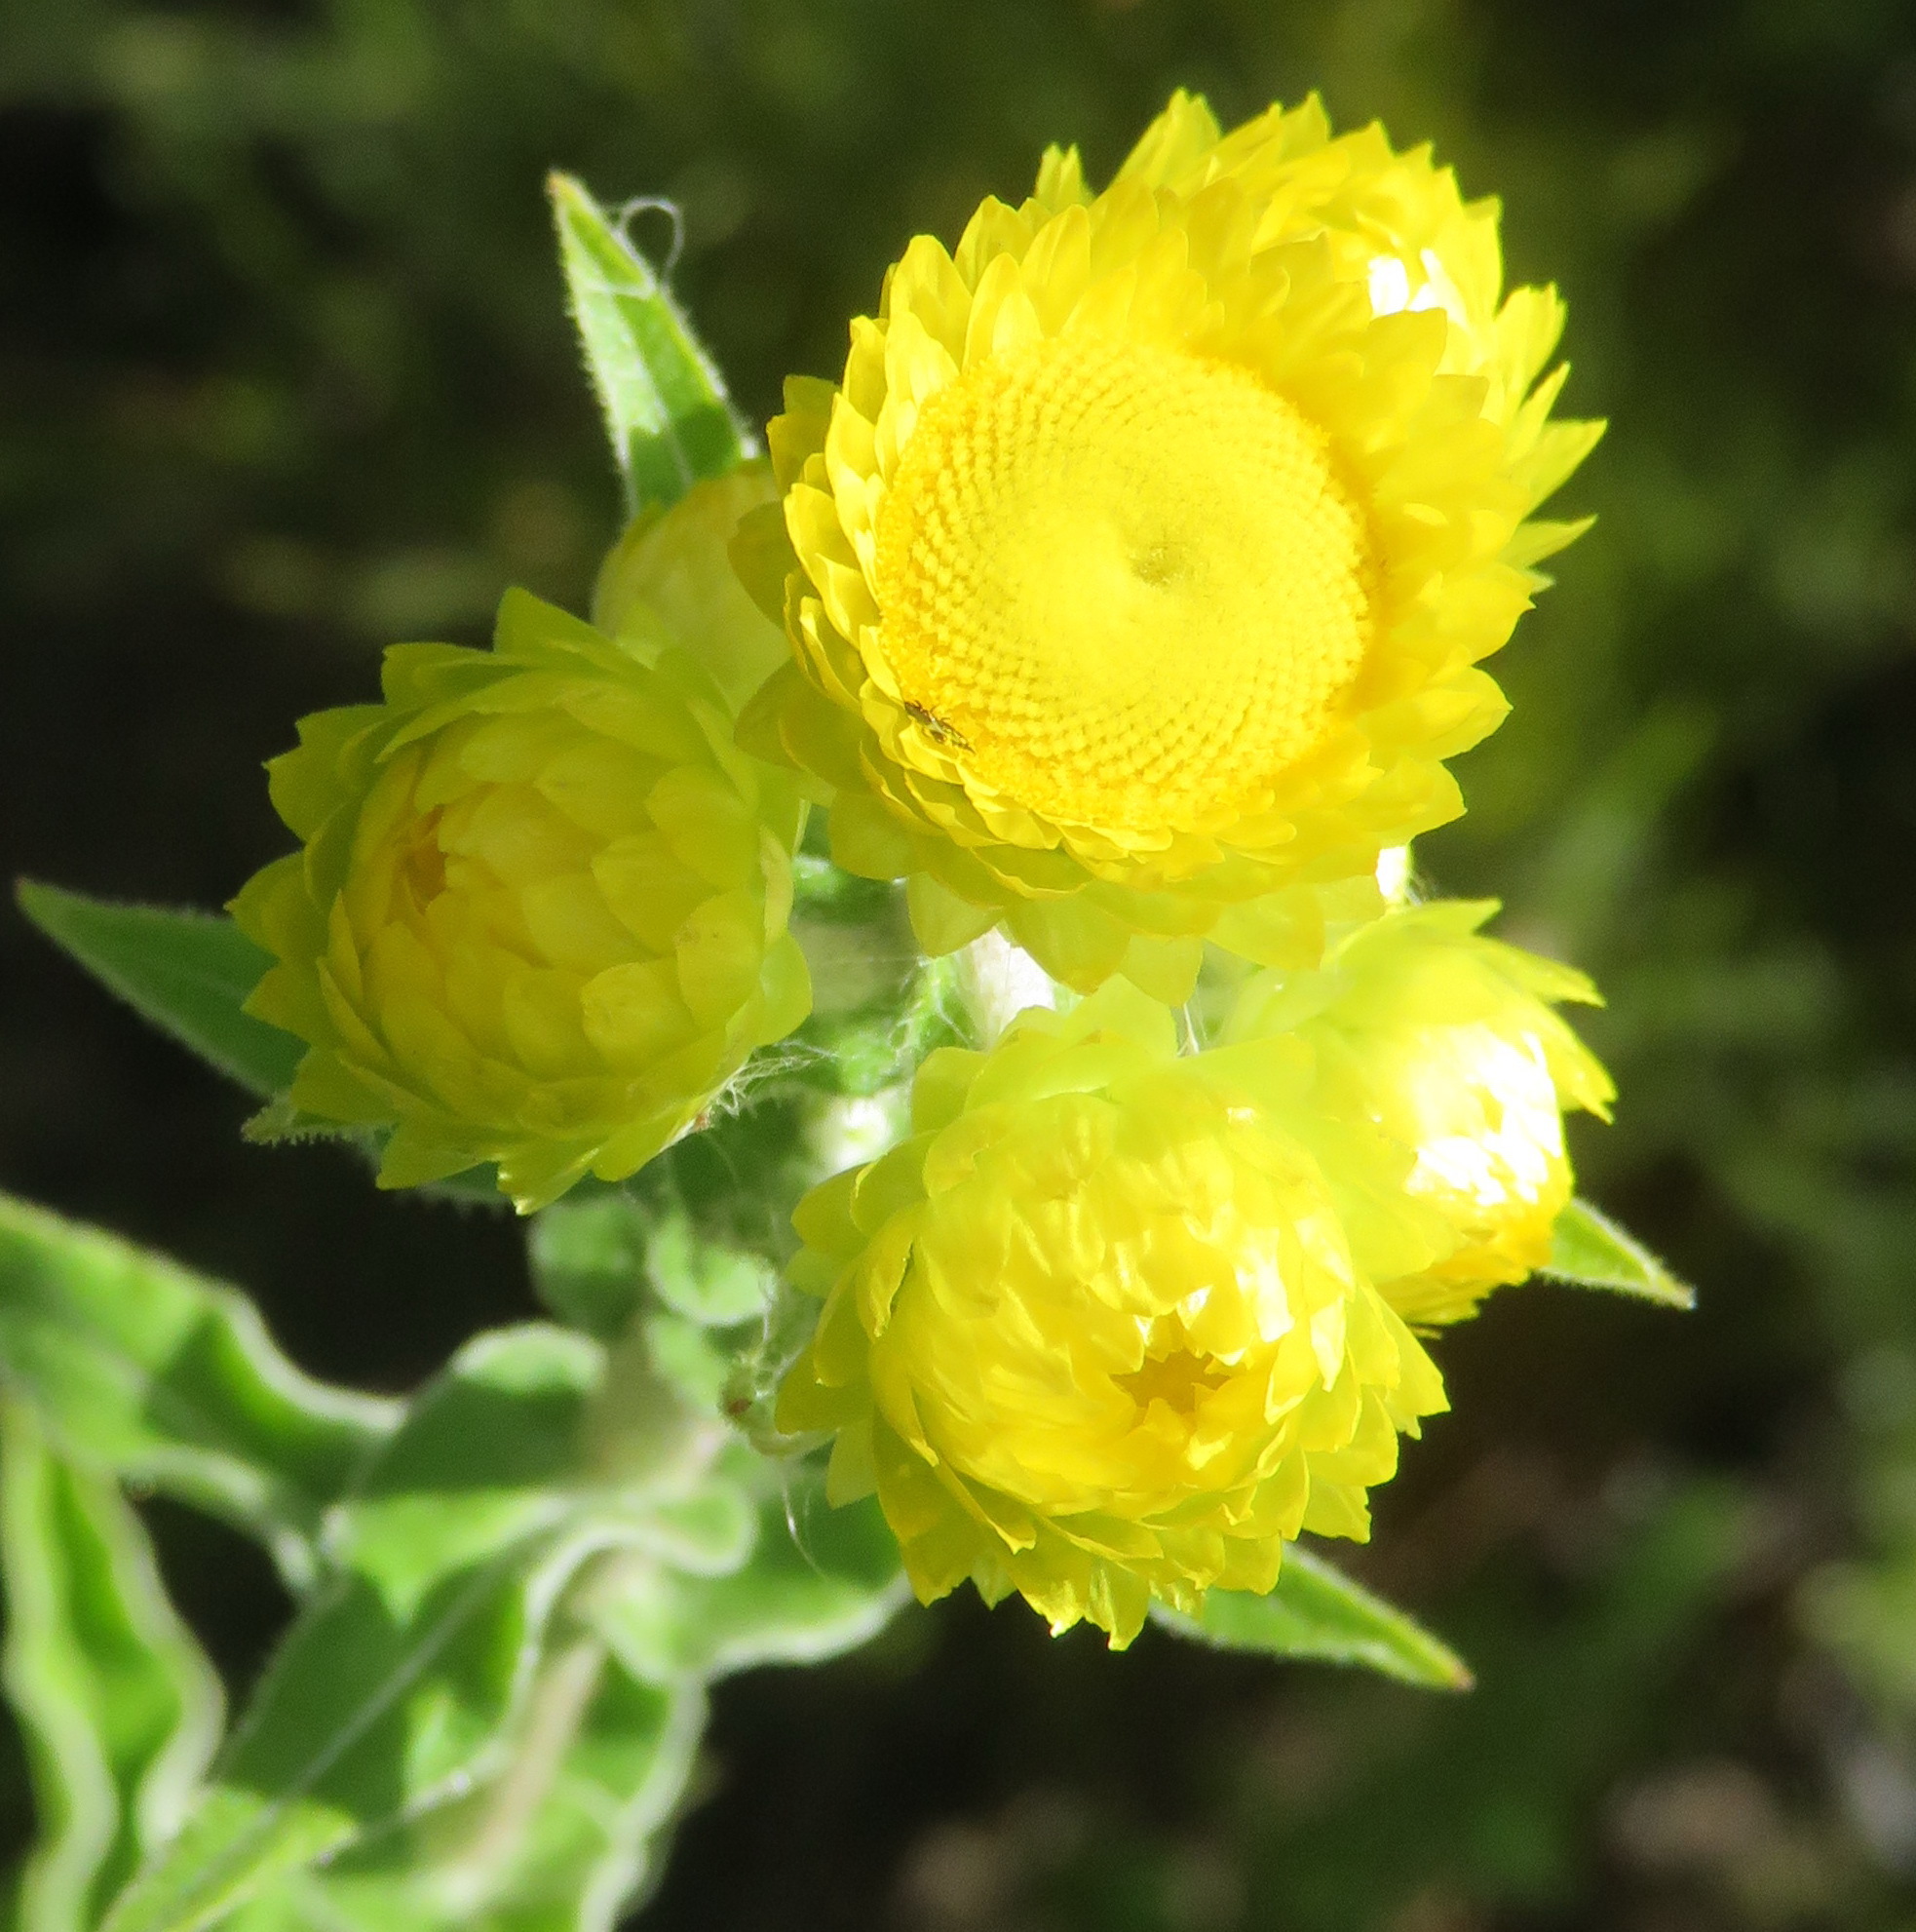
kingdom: Plantae
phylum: Tracheophyta
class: Magnoliopsida
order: Asterales
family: Asteraceae
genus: Helichrysum
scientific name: Helichrysum foetidum
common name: Stinking everlasting
